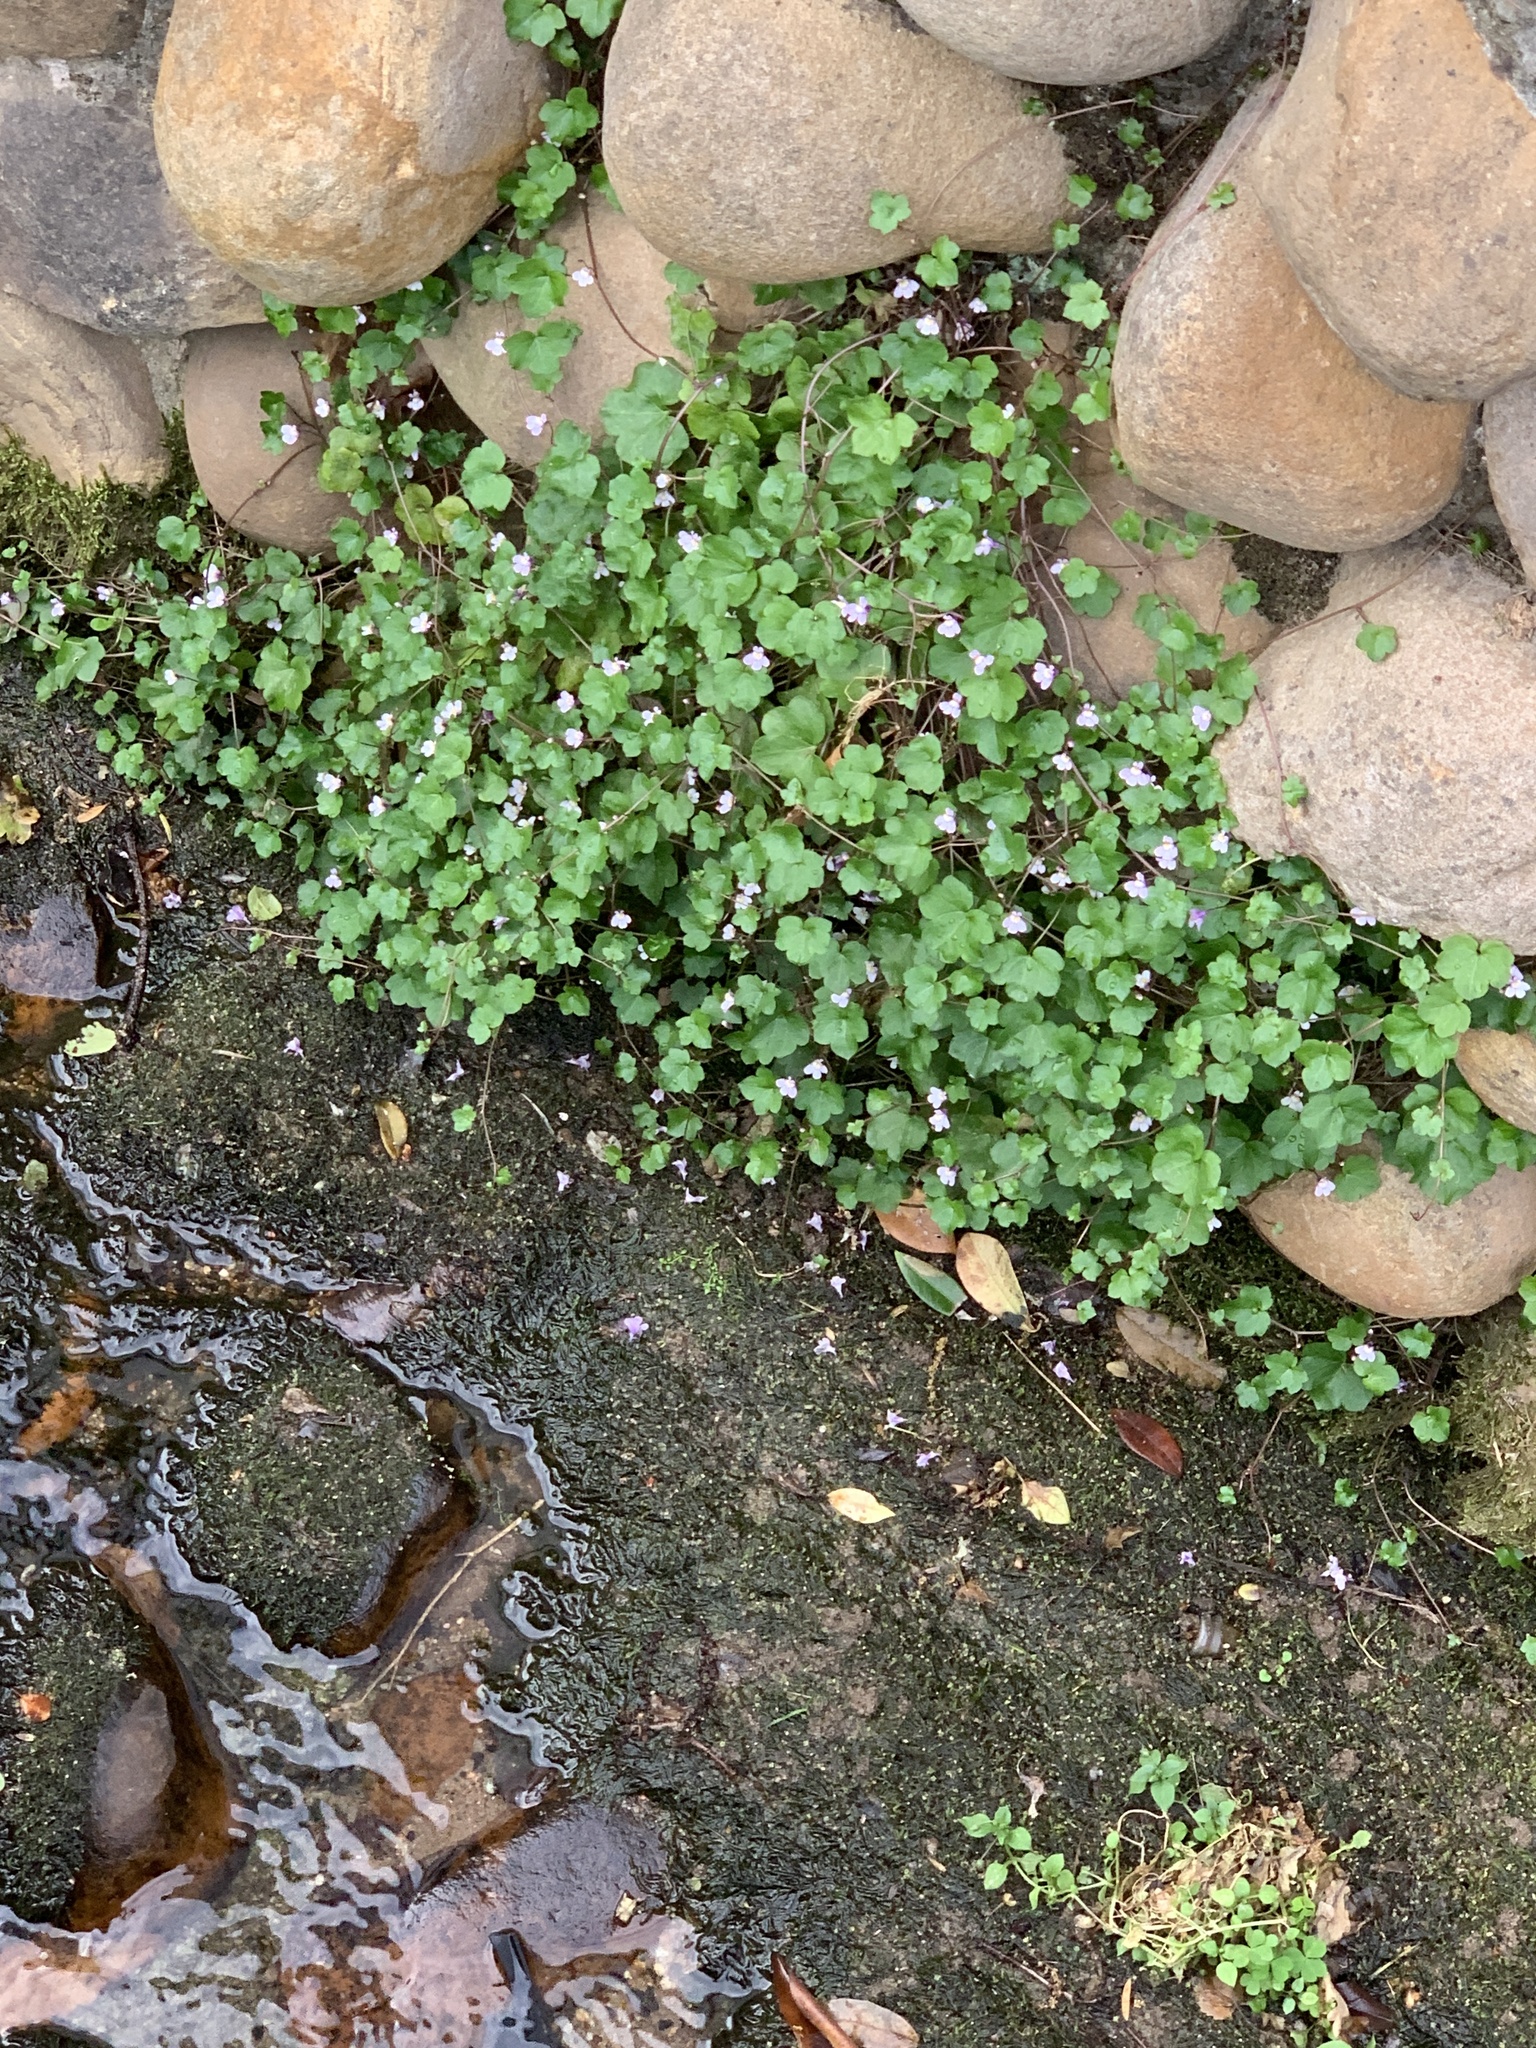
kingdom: Plantae
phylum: Tracheophyta
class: Magnoliopsida
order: Lamiales
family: Plantaginaceae
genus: Cymbalaria
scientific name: Cymbalaria muralis
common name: Ivy-leaved toadflax
